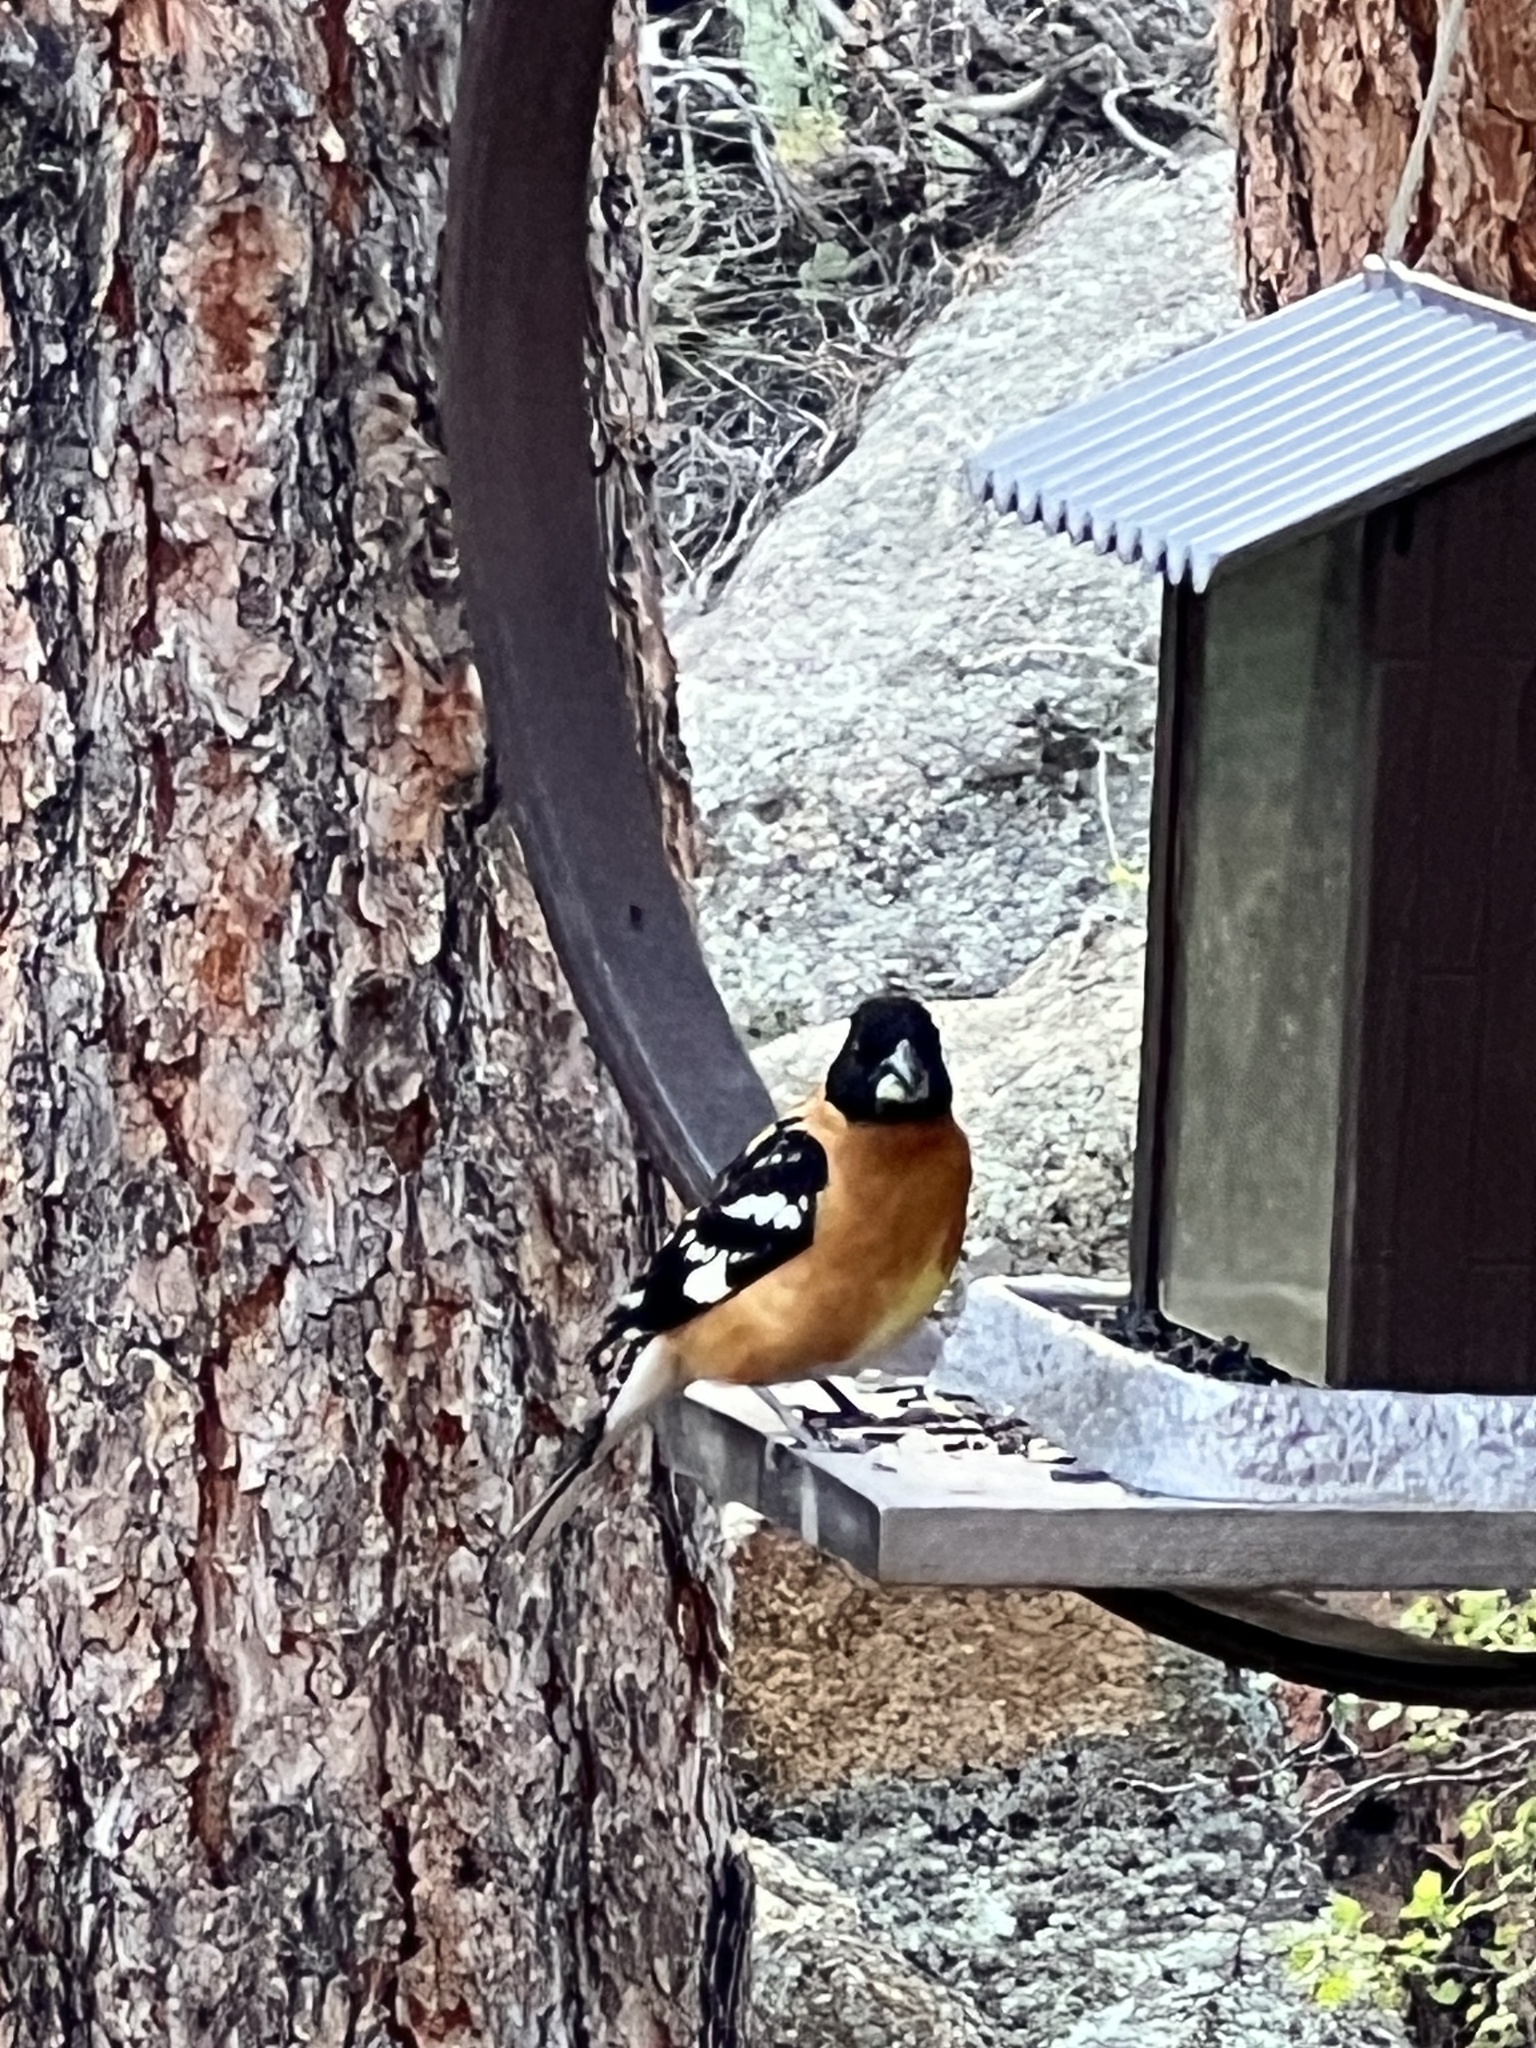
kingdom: Animalia
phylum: Chordata
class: Aves
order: Passeriformes
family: Cardinalidae
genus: Pheucticus
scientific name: Pheucticus melanocephalus
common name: Black-headed grosbeak
